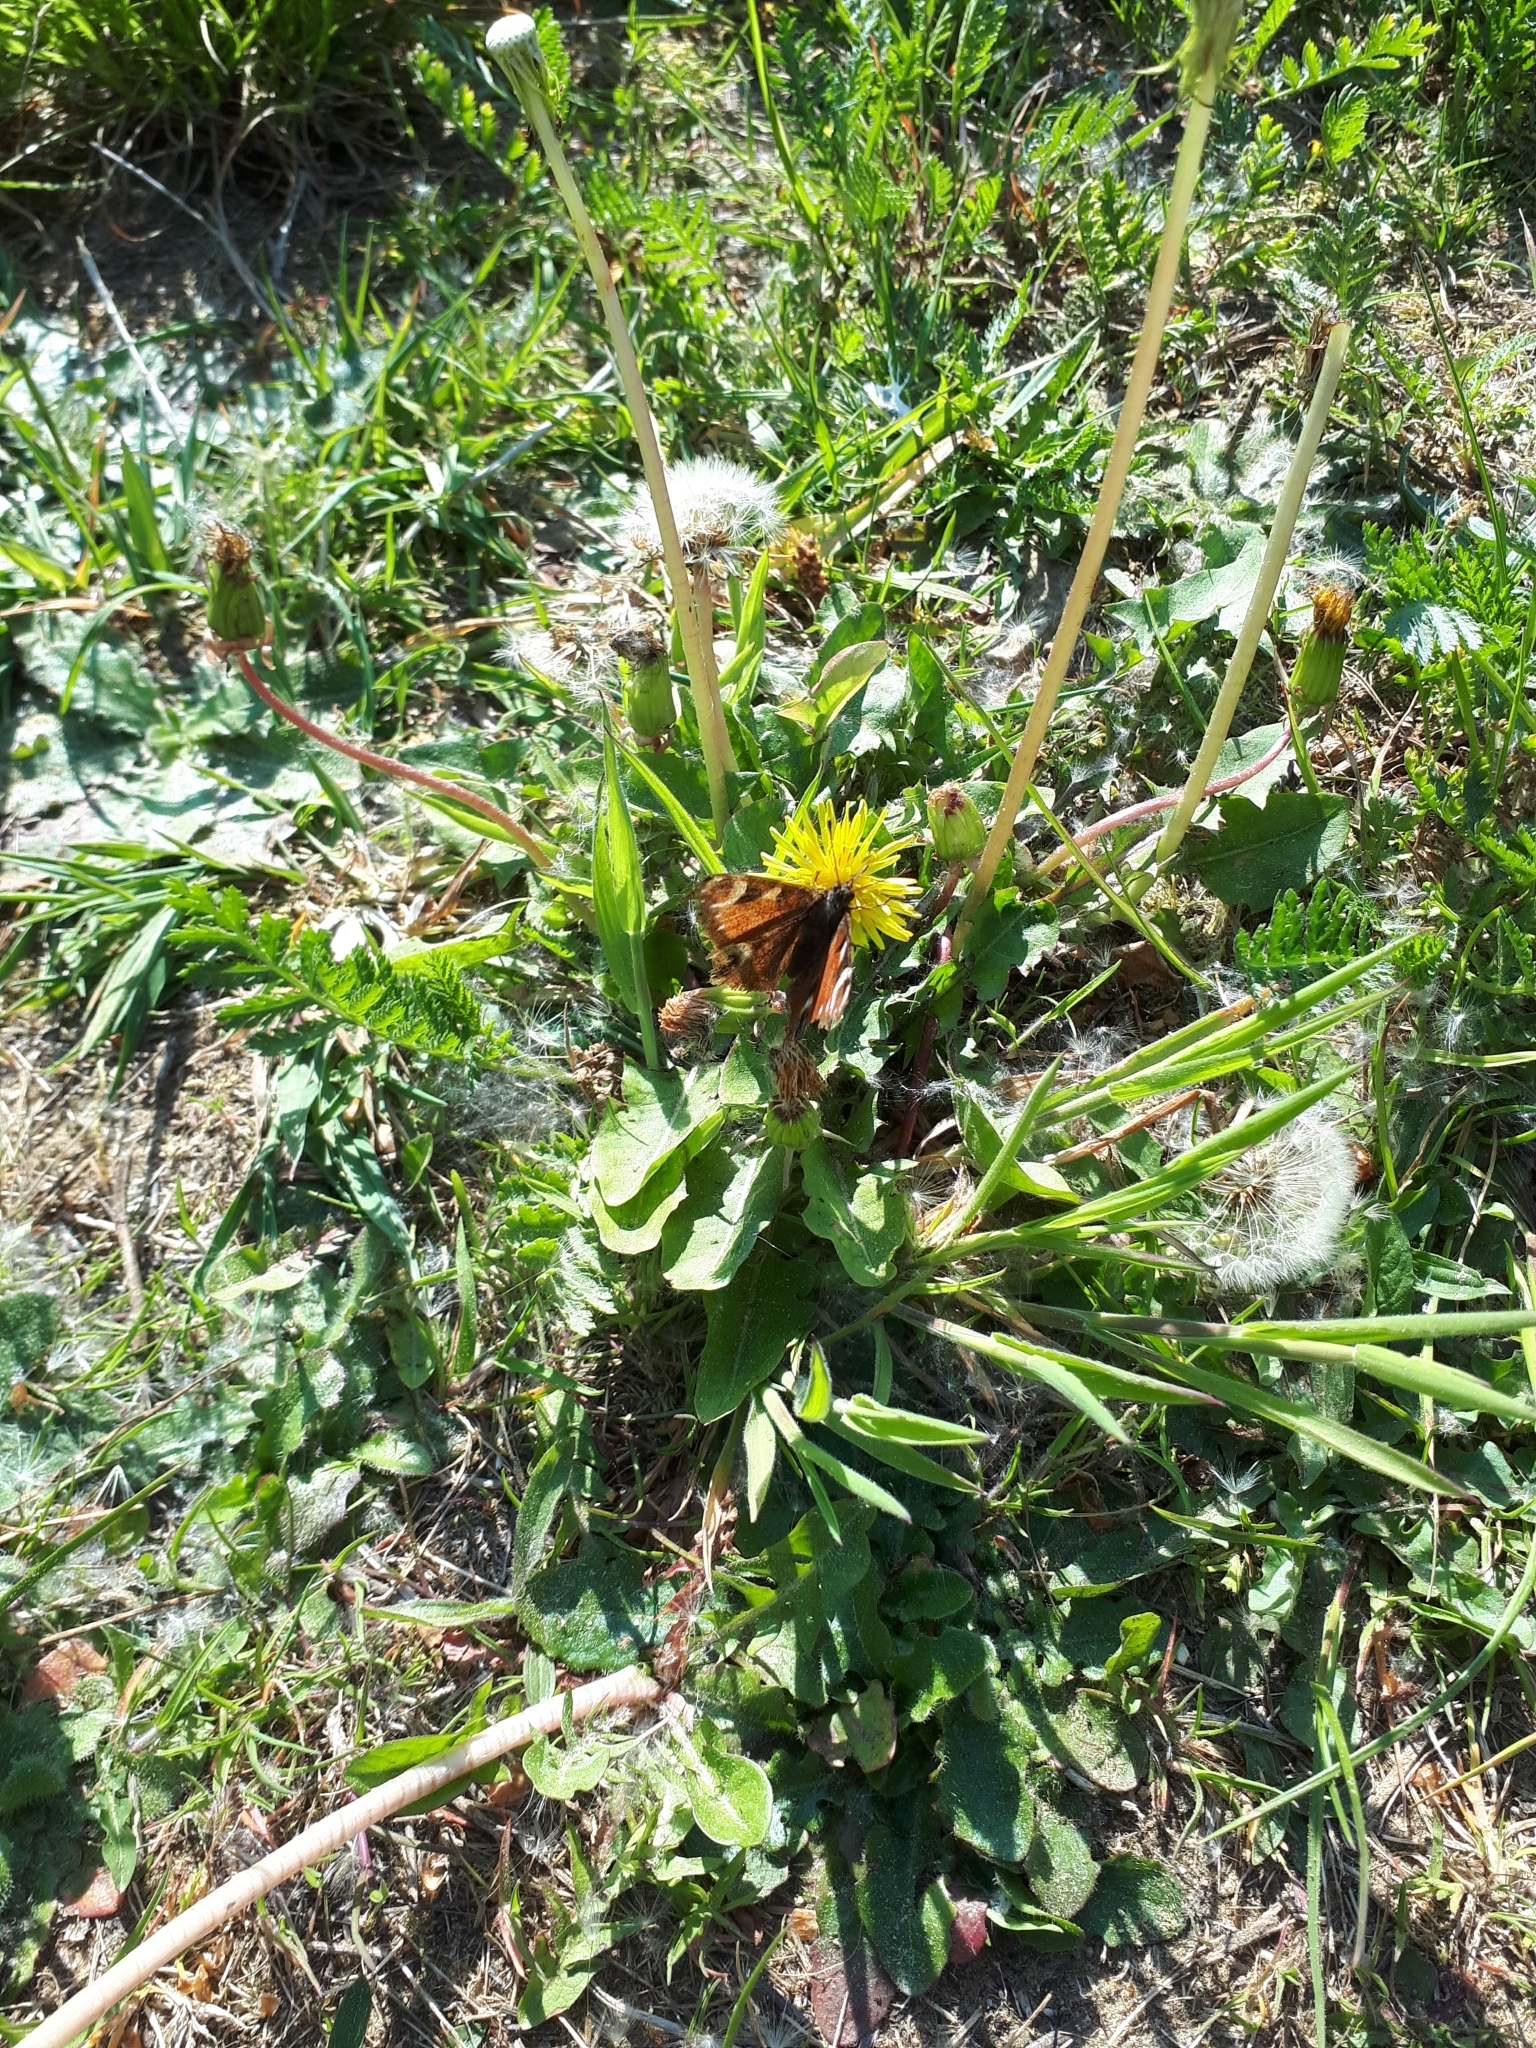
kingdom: Animalia
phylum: Arthropoda
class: Insecta
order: Lepidoptera
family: Nymphalidae
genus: Aglais
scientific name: Aglais io
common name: Peacock
